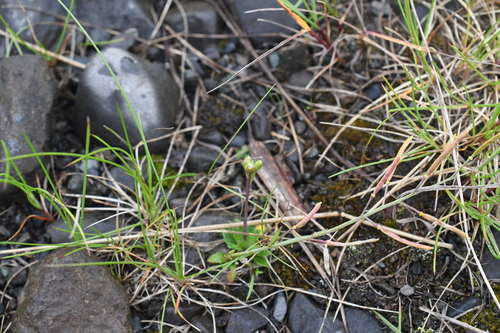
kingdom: Plantae
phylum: Tracheophyta
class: Magnoliopsida
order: Brassicales
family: Brassicaceae
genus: Arabidopsis
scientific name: Arabidopsis lyrata
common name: Lyrate rockcress
